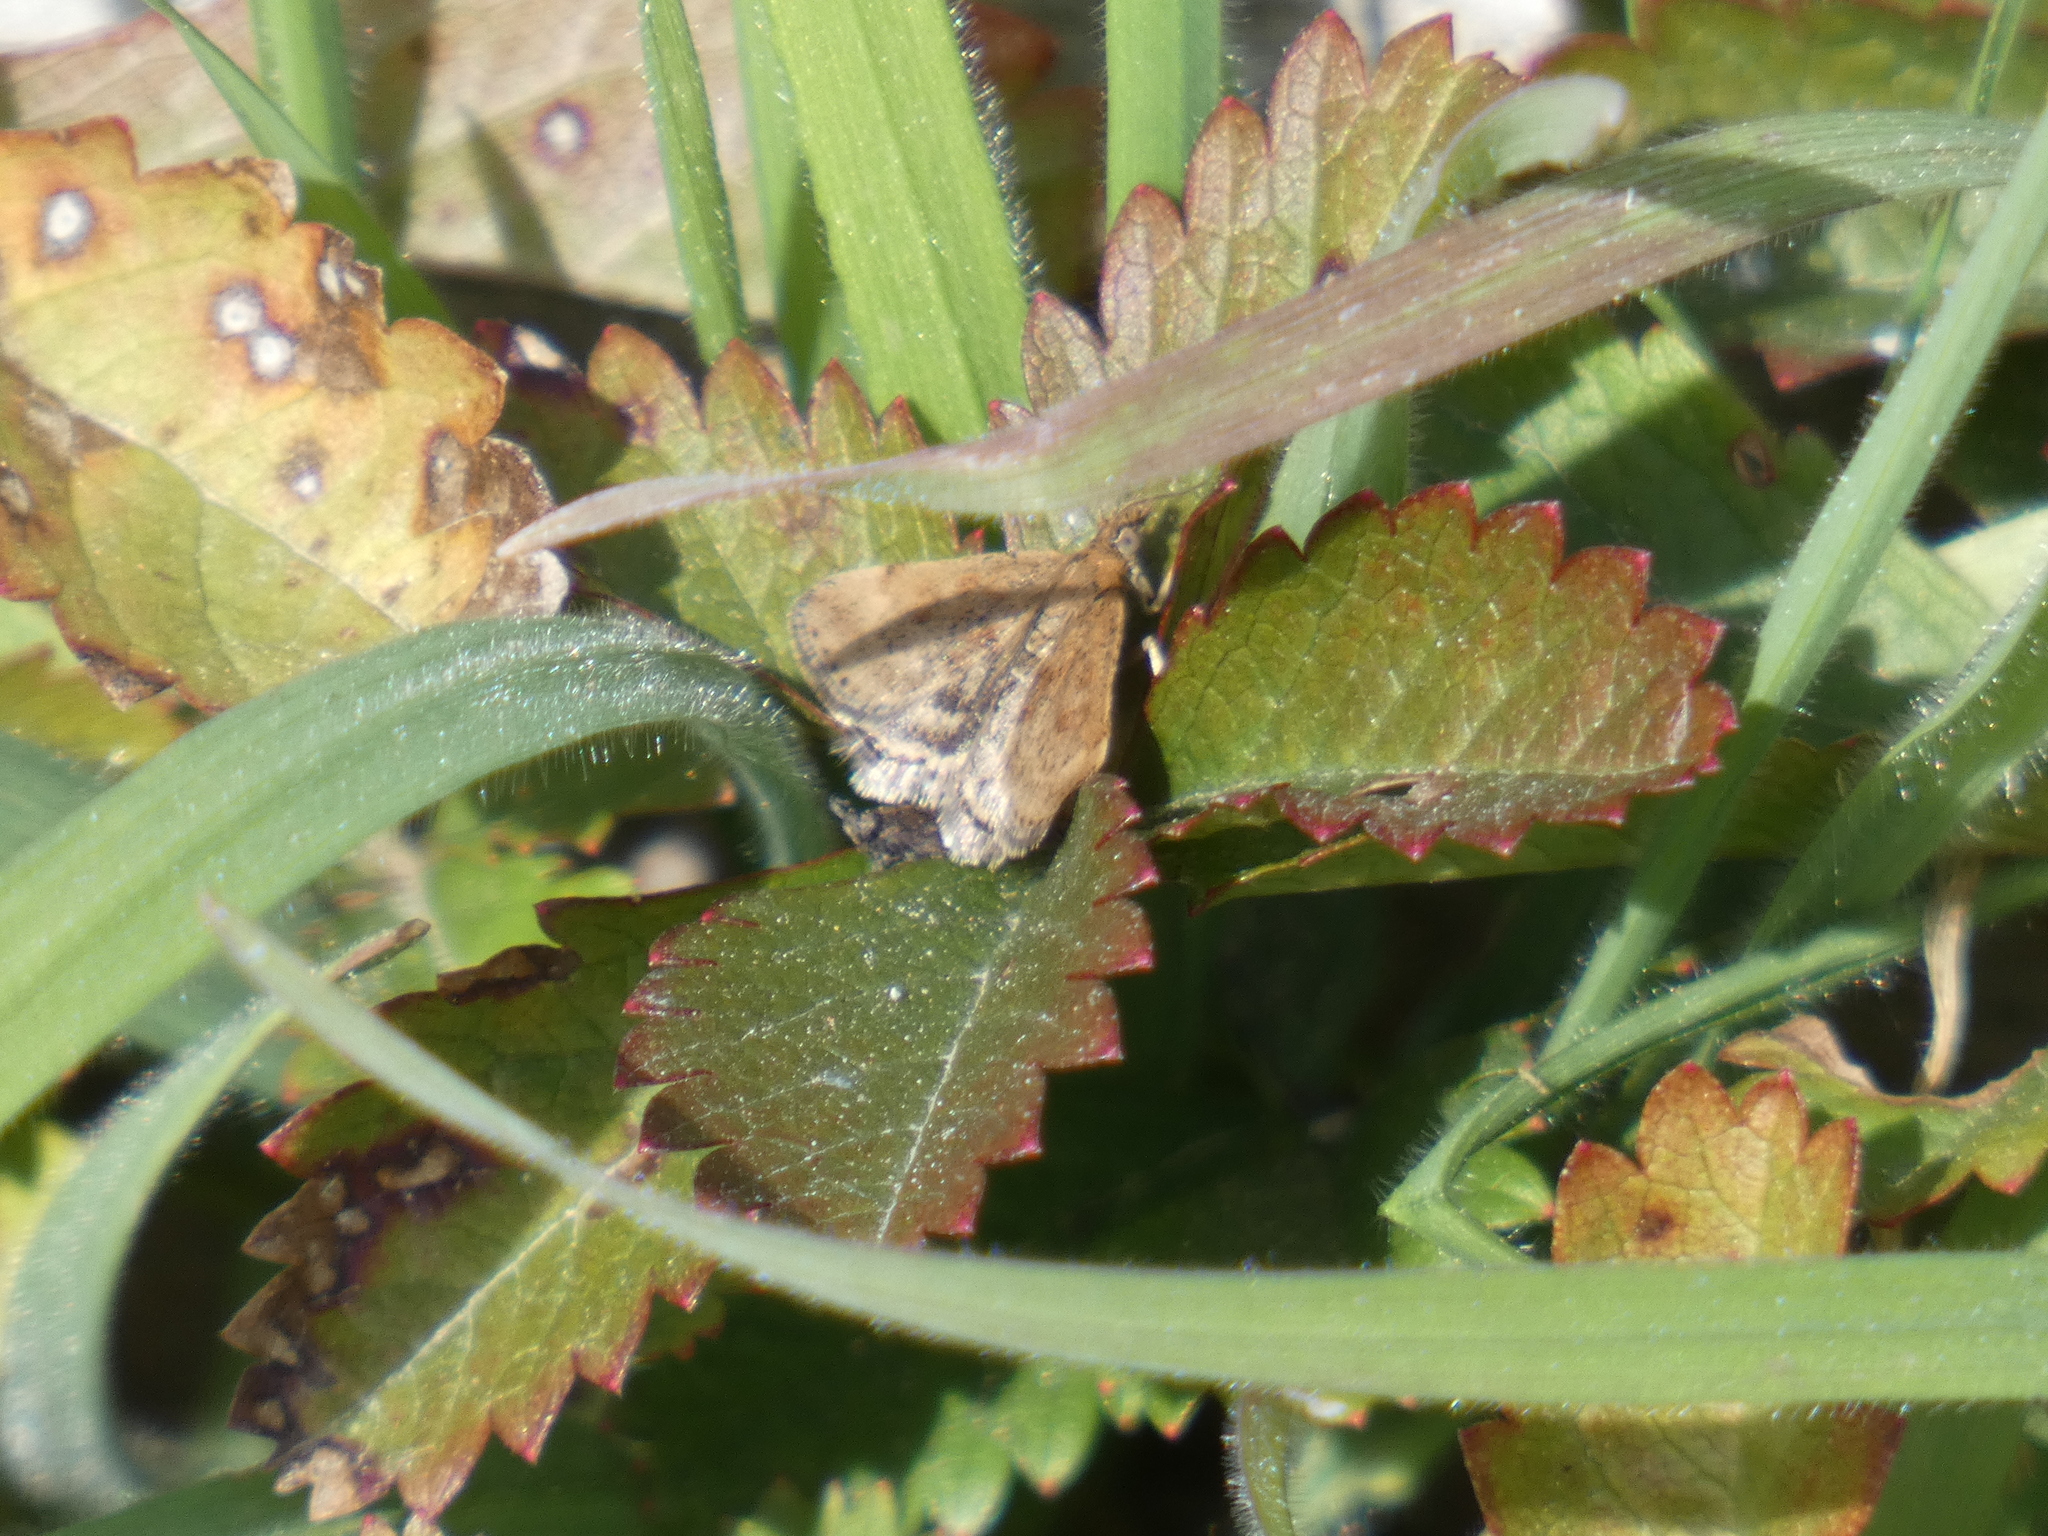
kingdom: Animalia
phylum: Arthropoda
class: Insecta
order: Lepidoptera
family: Crambidae
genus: Pyrausta
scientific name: Pyrausta despicata
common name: Straw-barred pearl
